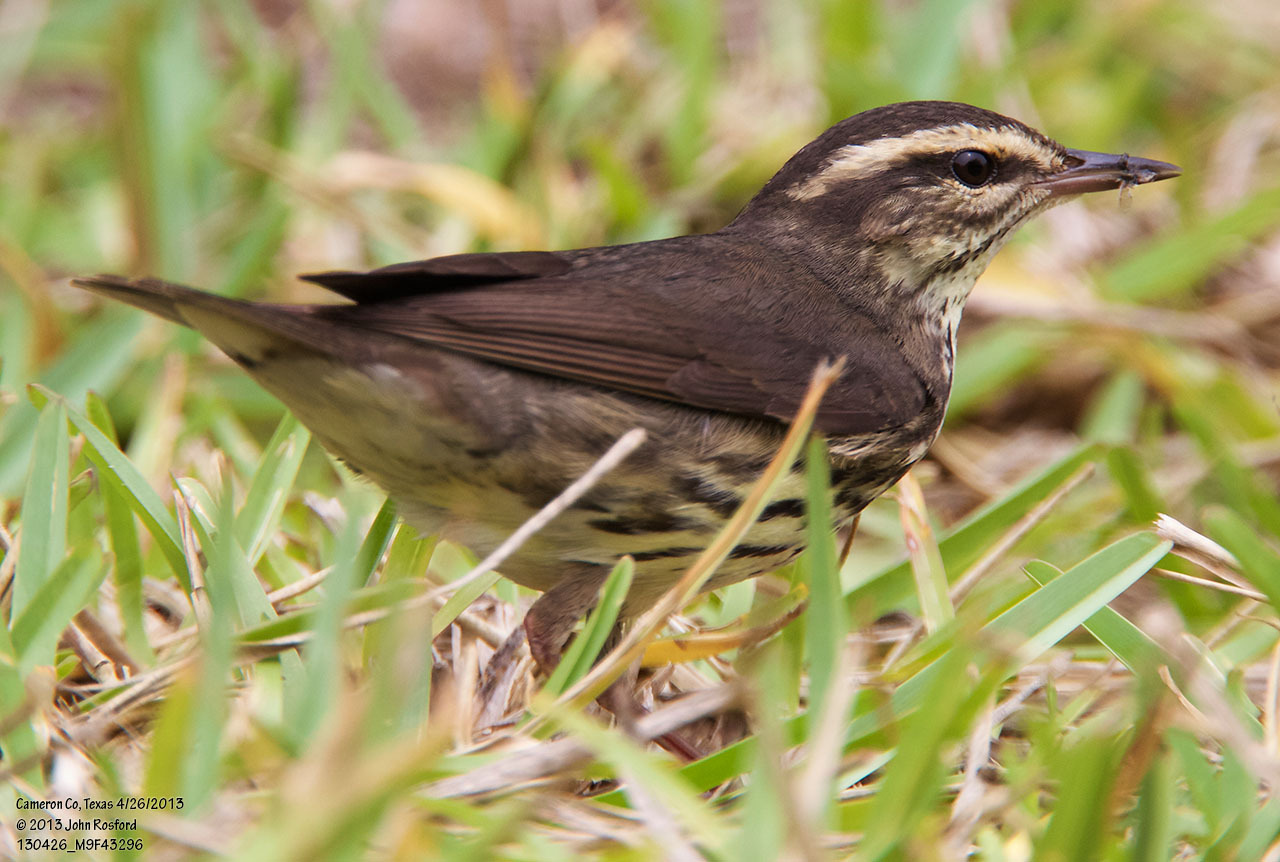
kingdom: Animalia
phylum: Chordata
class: Aves
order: Passeriformes
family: Parulidae
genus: Parkesia
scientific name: Parkesia noveboracensis
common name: Northern waterthrush
